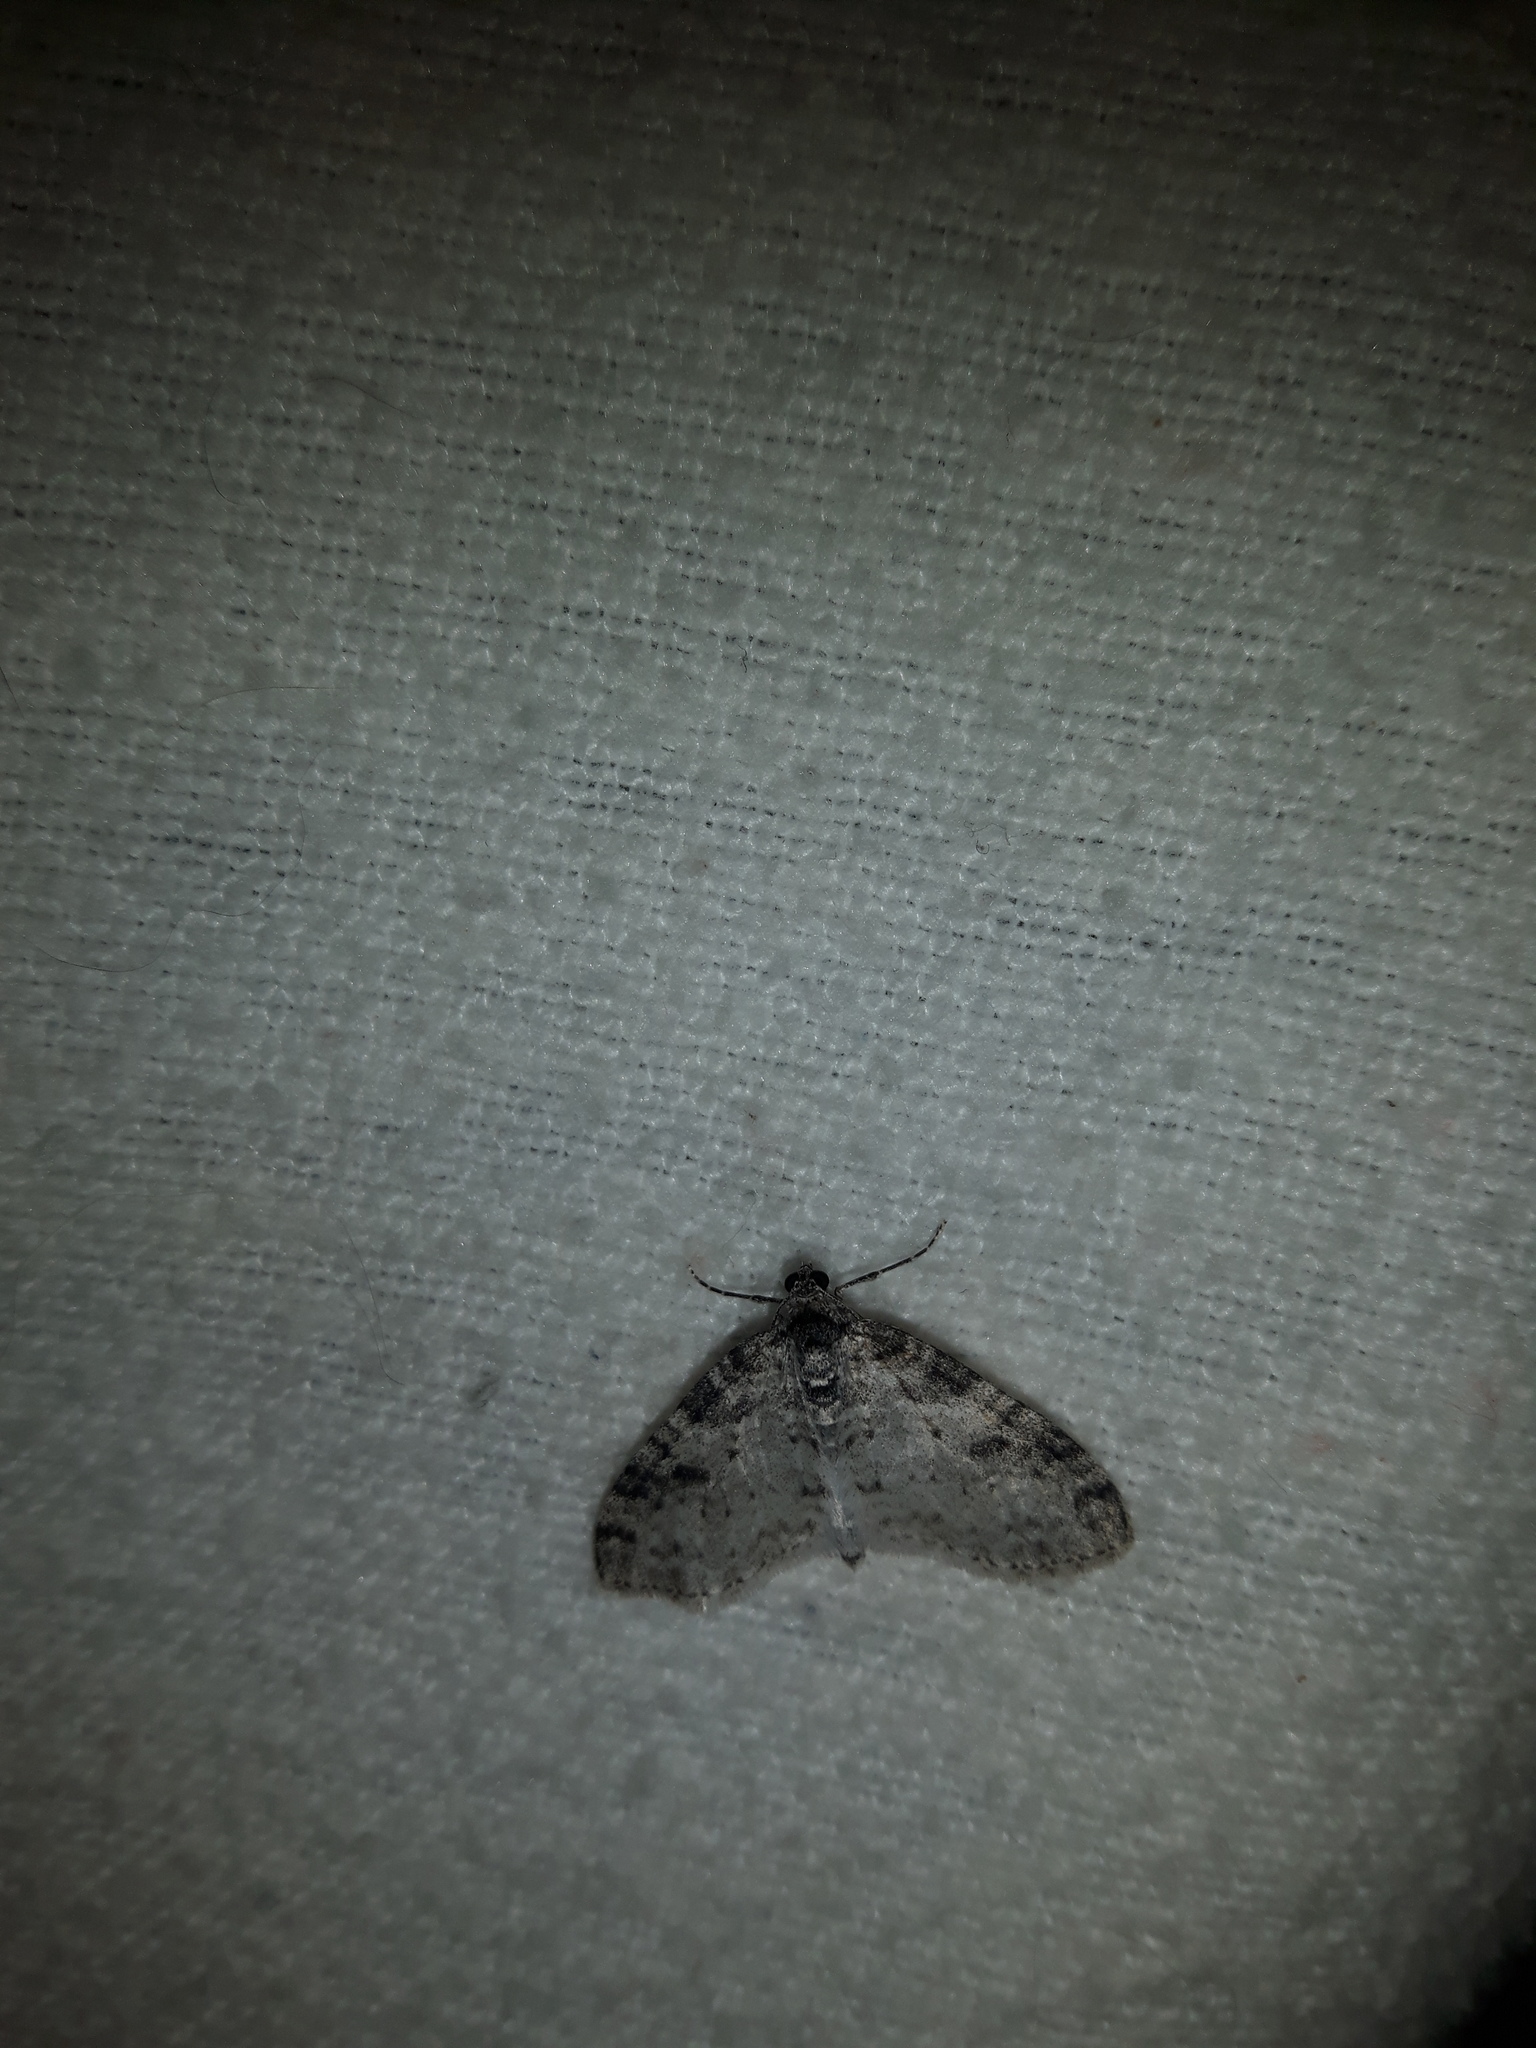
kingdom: Animalia
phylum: Arthropoda
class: Insecta
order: Lepidoptera
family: Geometridae
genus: Lobophora
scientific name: Lobophora nivigerata
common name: Powdered bigwing
